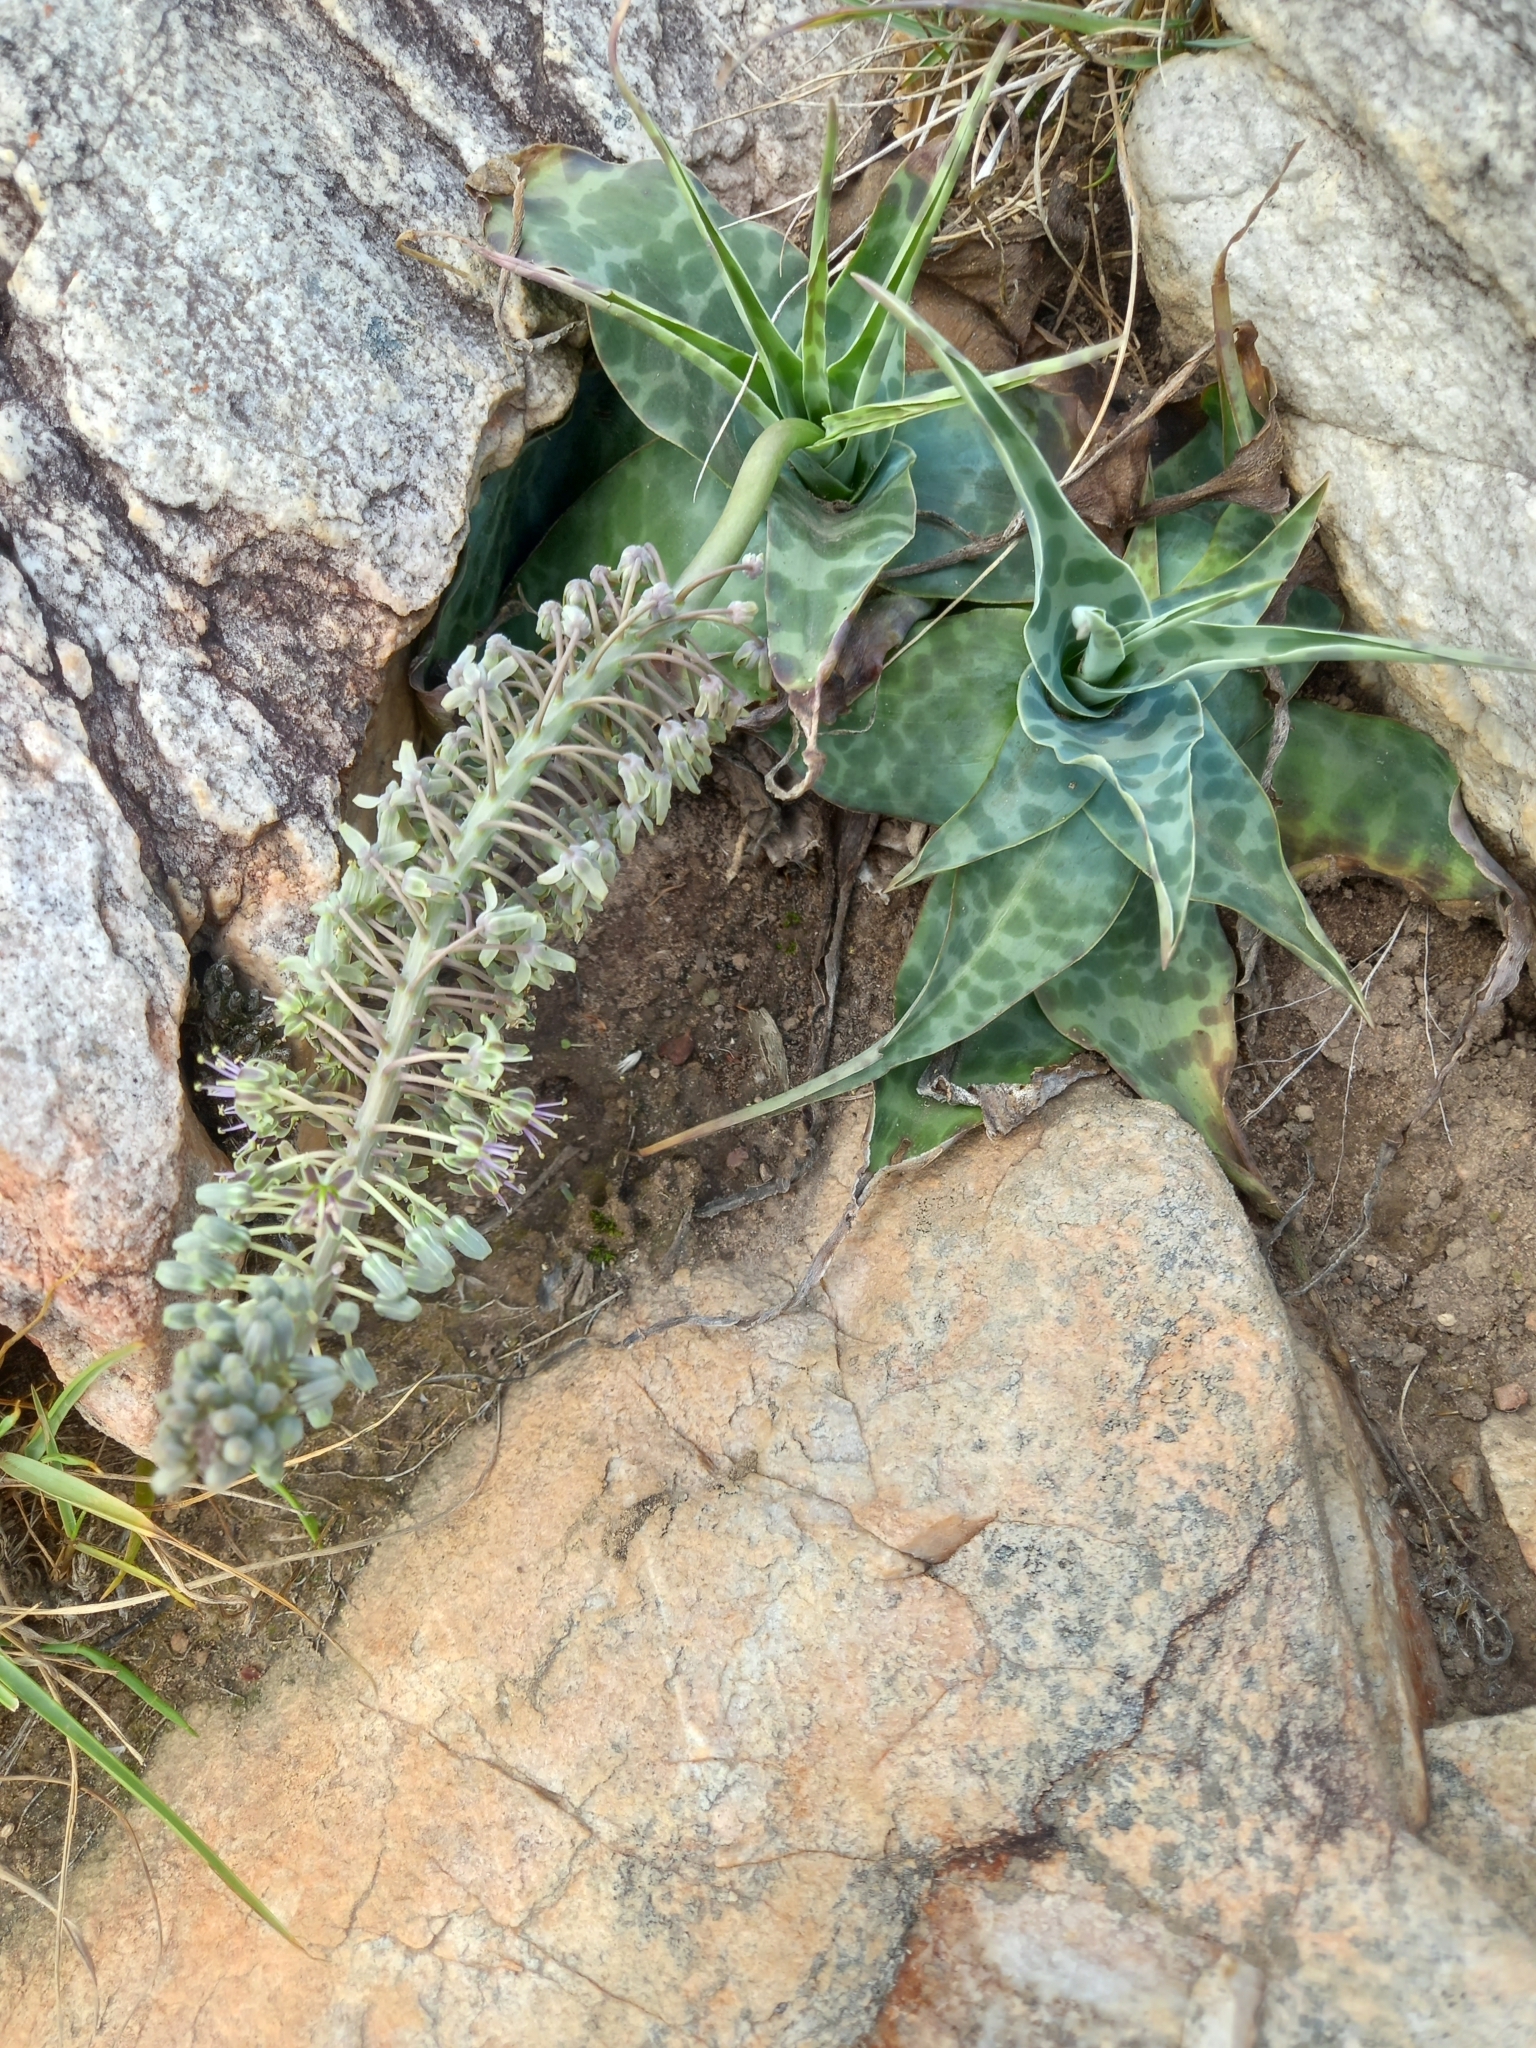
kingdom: Plantae
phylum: Tracheophyta
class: Liliopsida
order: Asparagales
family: Asparagaceae
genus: Ledebouria
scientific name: Ledebouria revoluta
